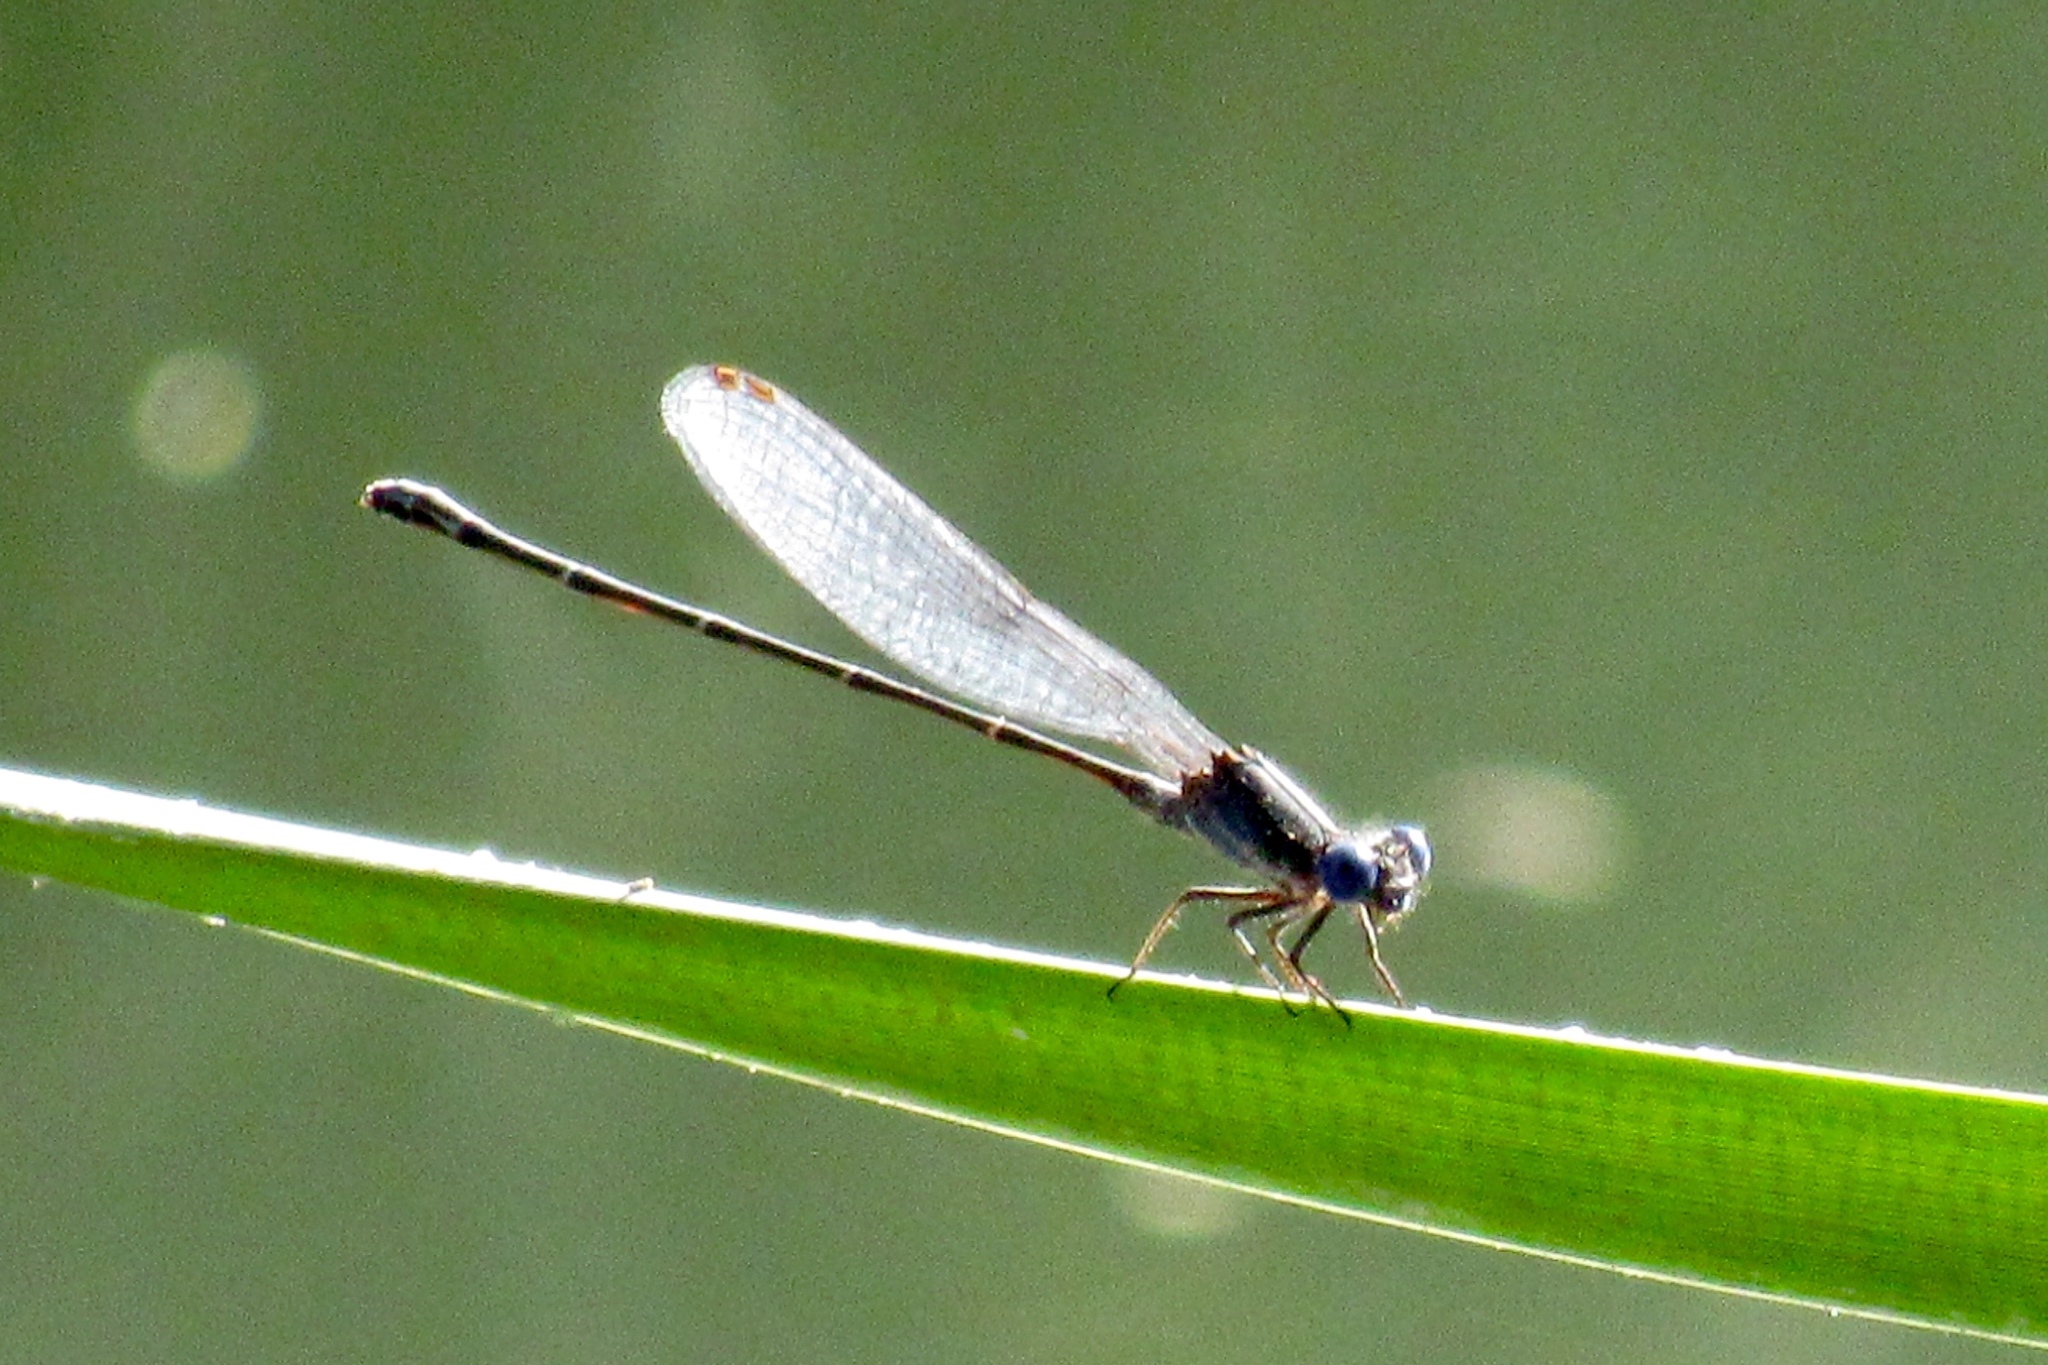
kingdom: Animalia
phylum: Arthropoda
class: Insecta
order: Odonata
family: Coenagrionidae
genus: Argia
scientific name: Argia translata
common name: Dusky dancer
